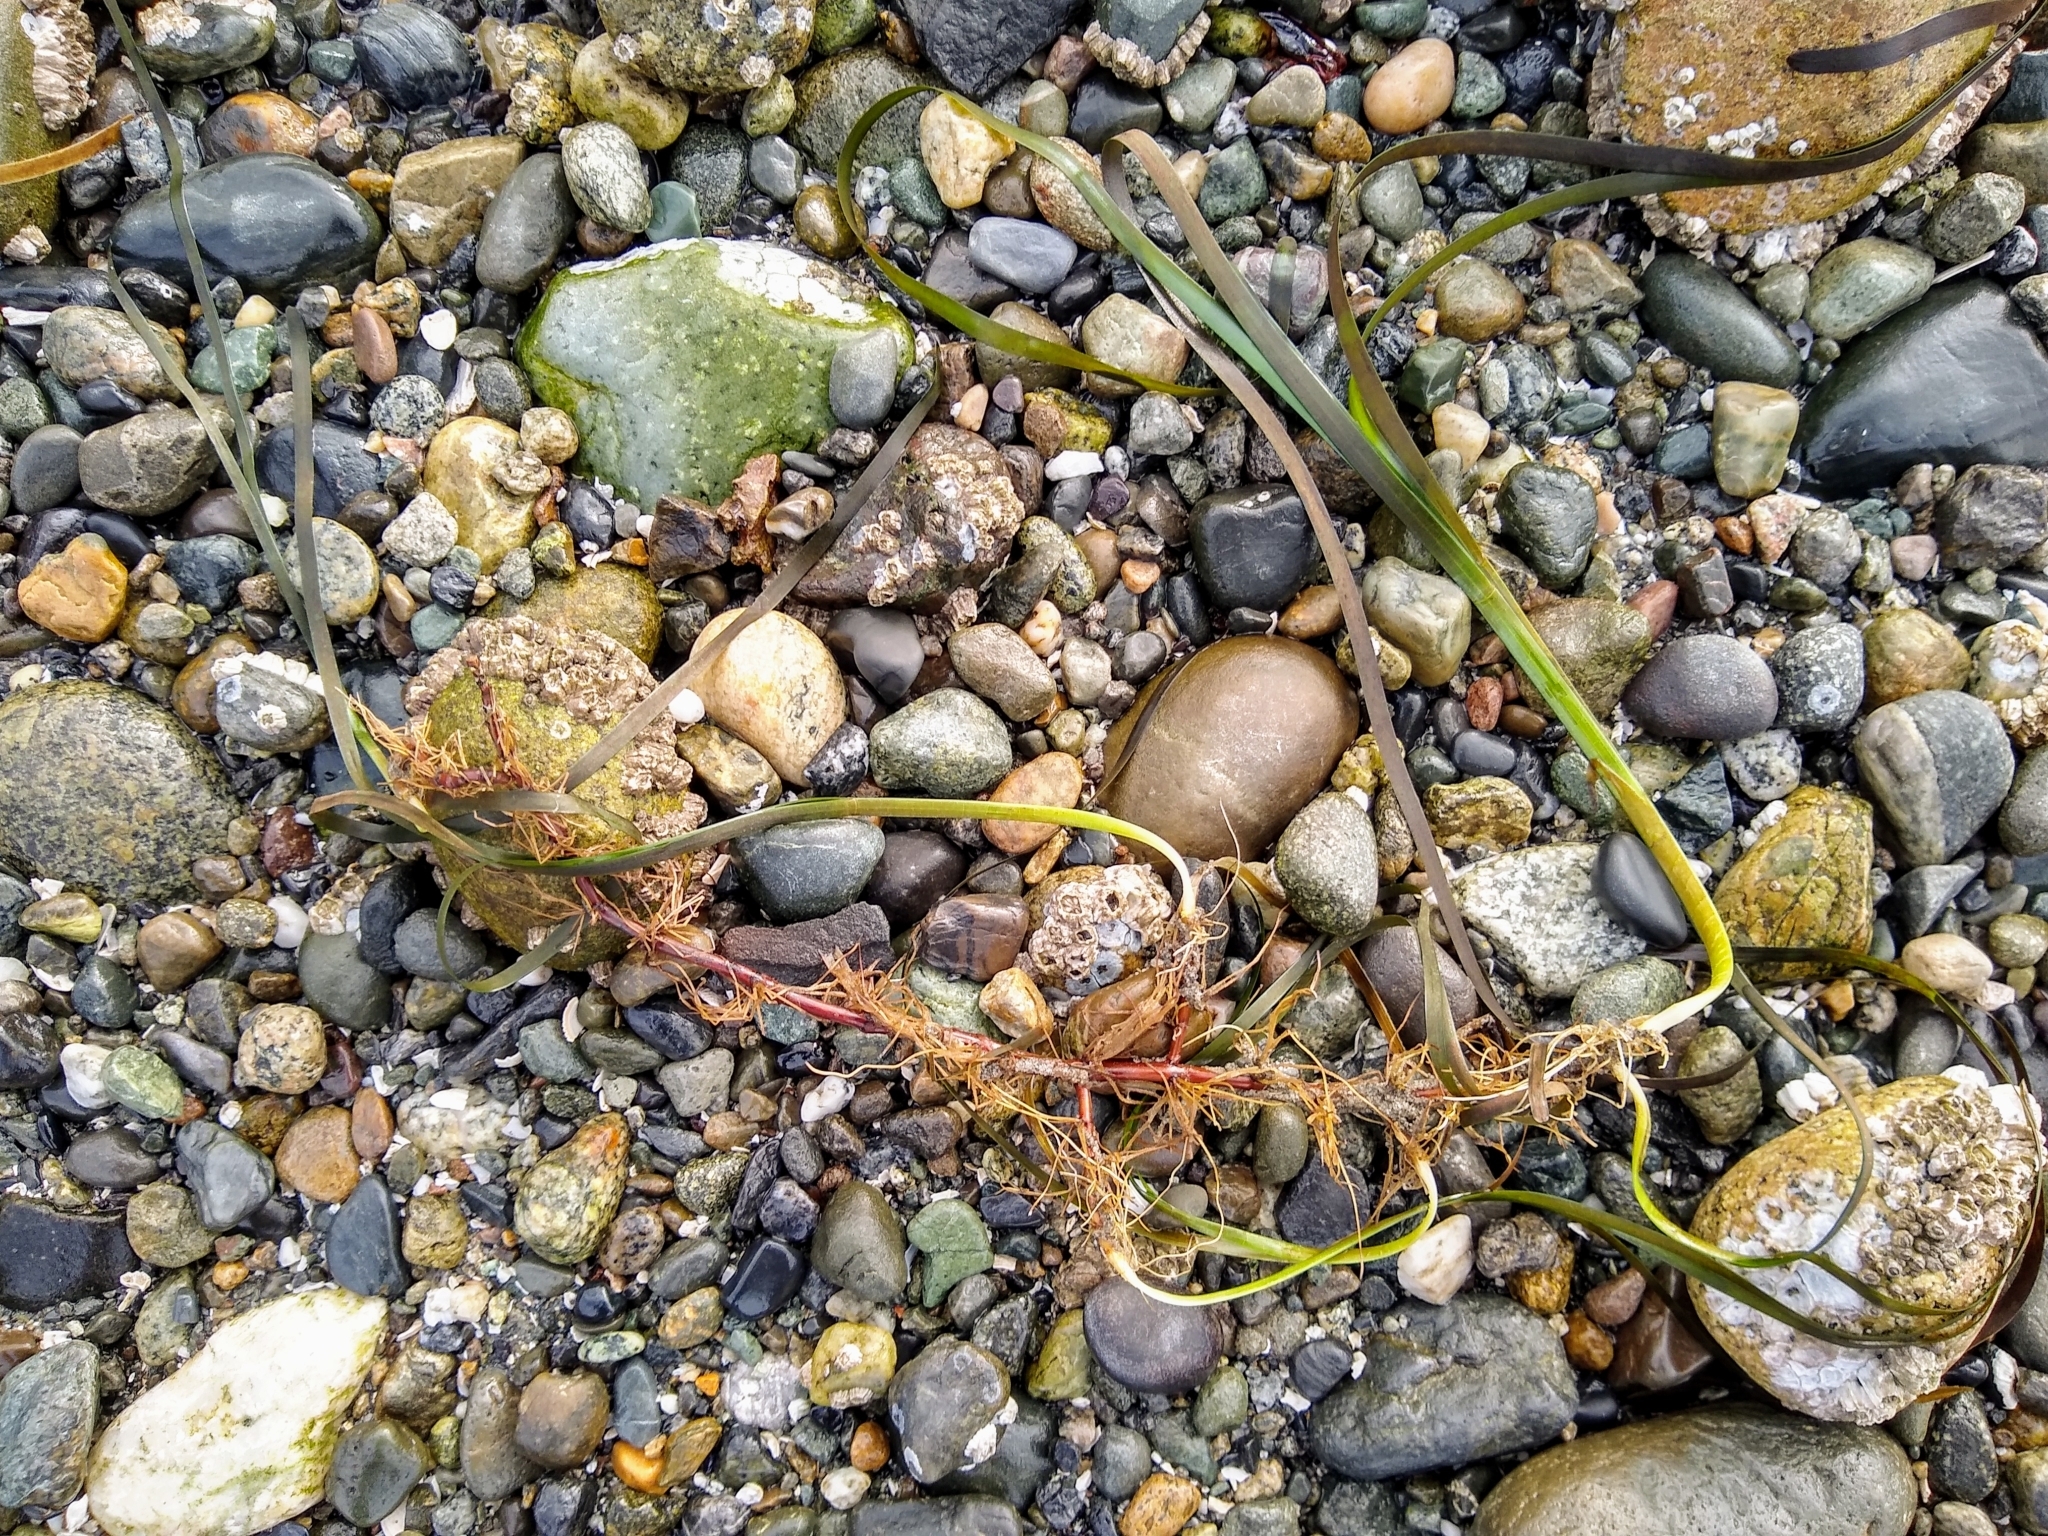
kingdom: Plantae
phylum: Tracheophyta
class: Liliopsida
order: Alismatales
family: Zosteraceae
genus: Zostera
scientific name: Zostera marina
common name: Eelgrass
